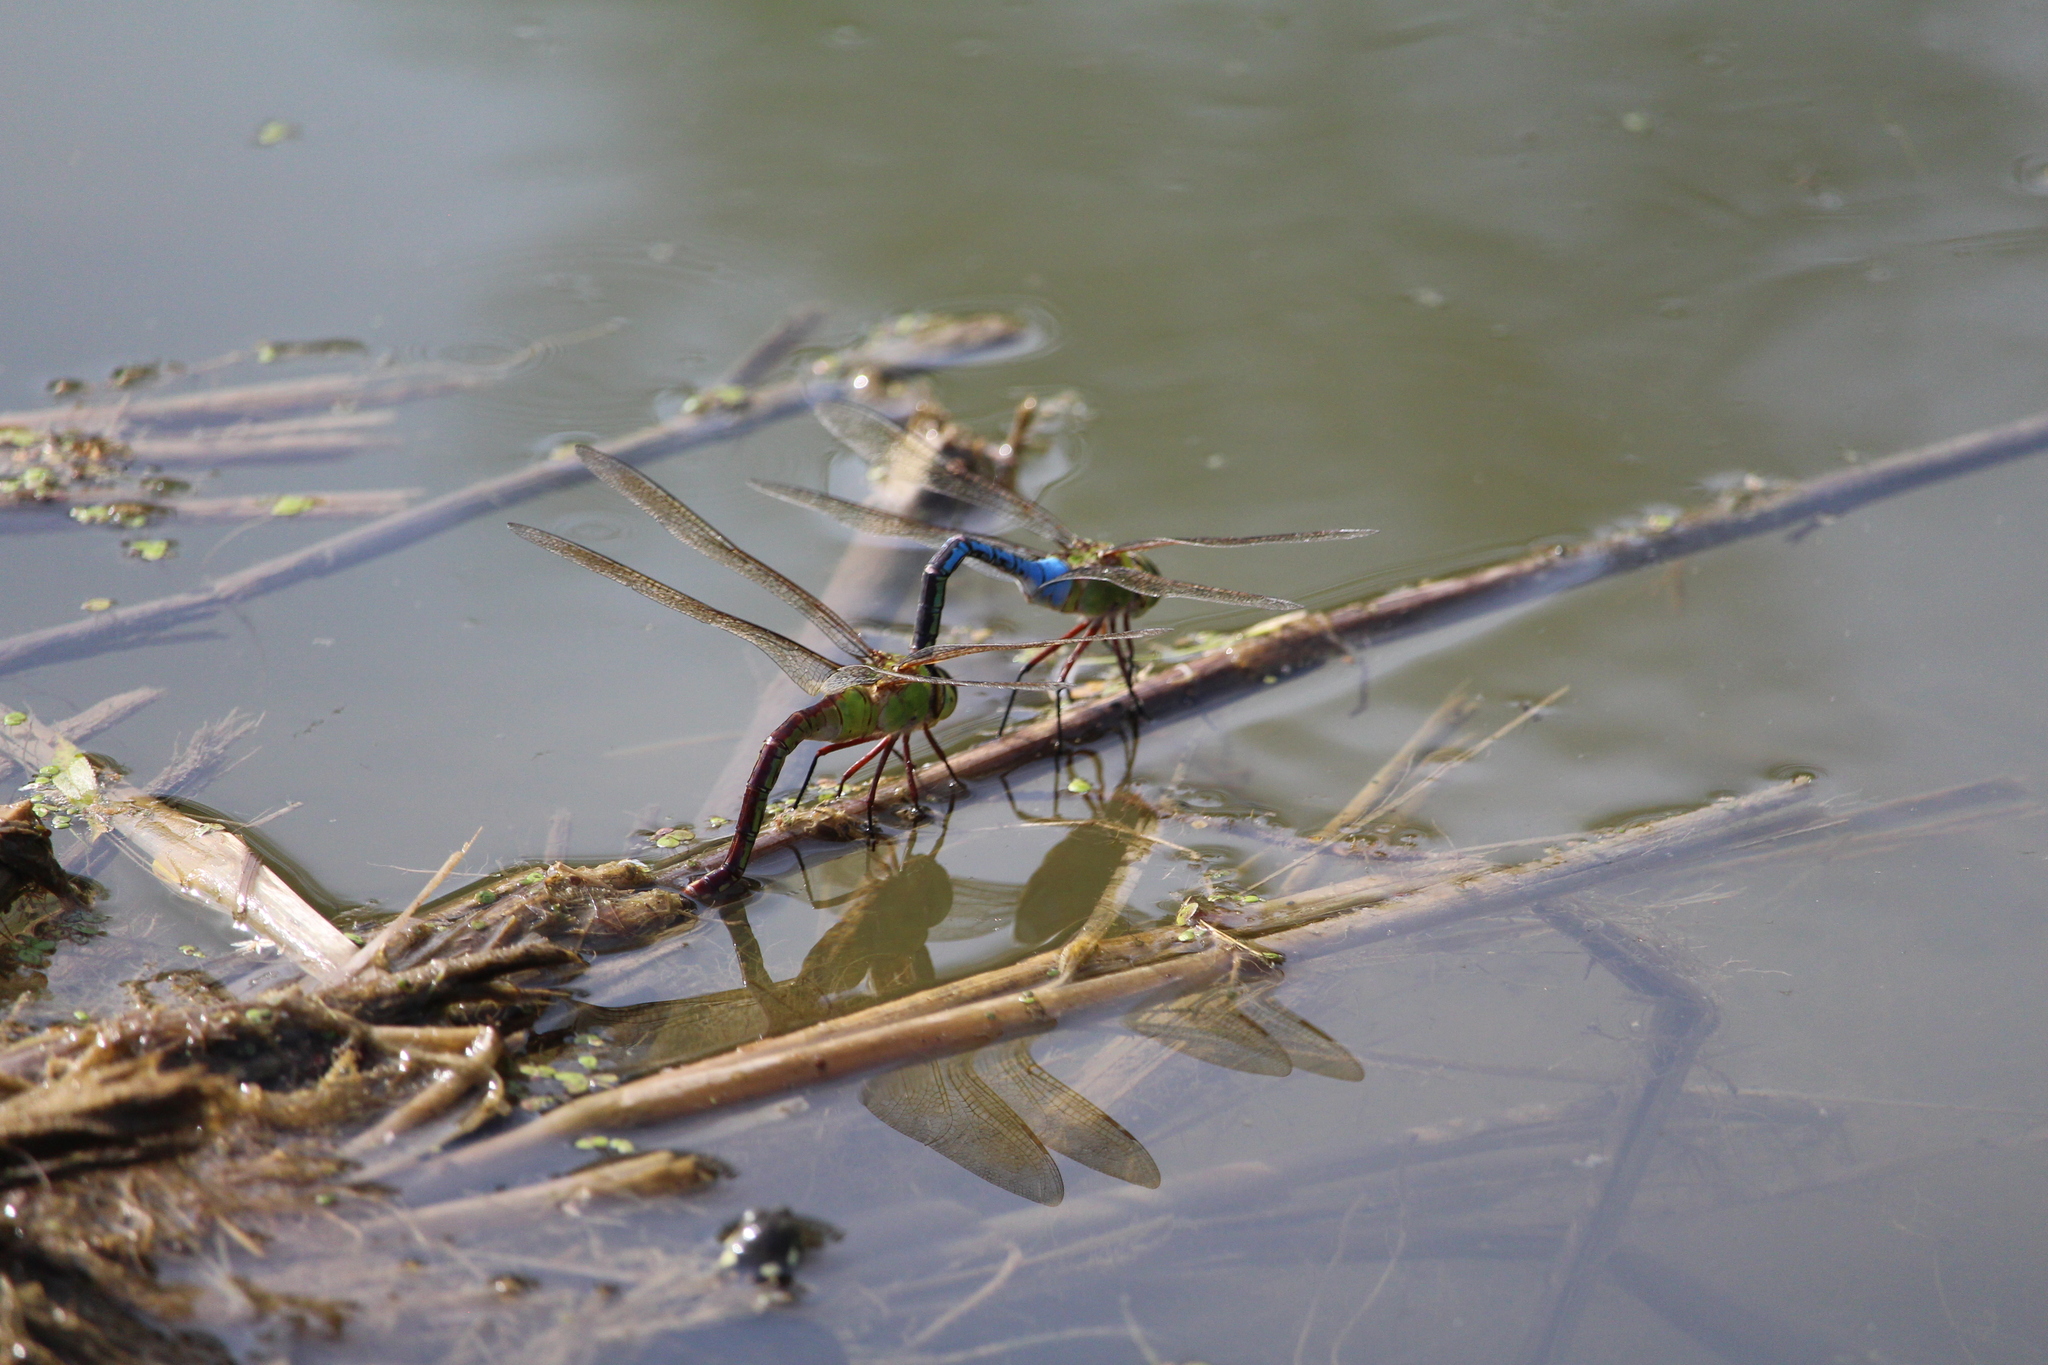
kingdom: Animalia
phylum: Arthropoda
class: Insecta
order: Odonata
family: Aeshnidae
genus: Anax
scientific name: Anax junius
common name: Common green darner
